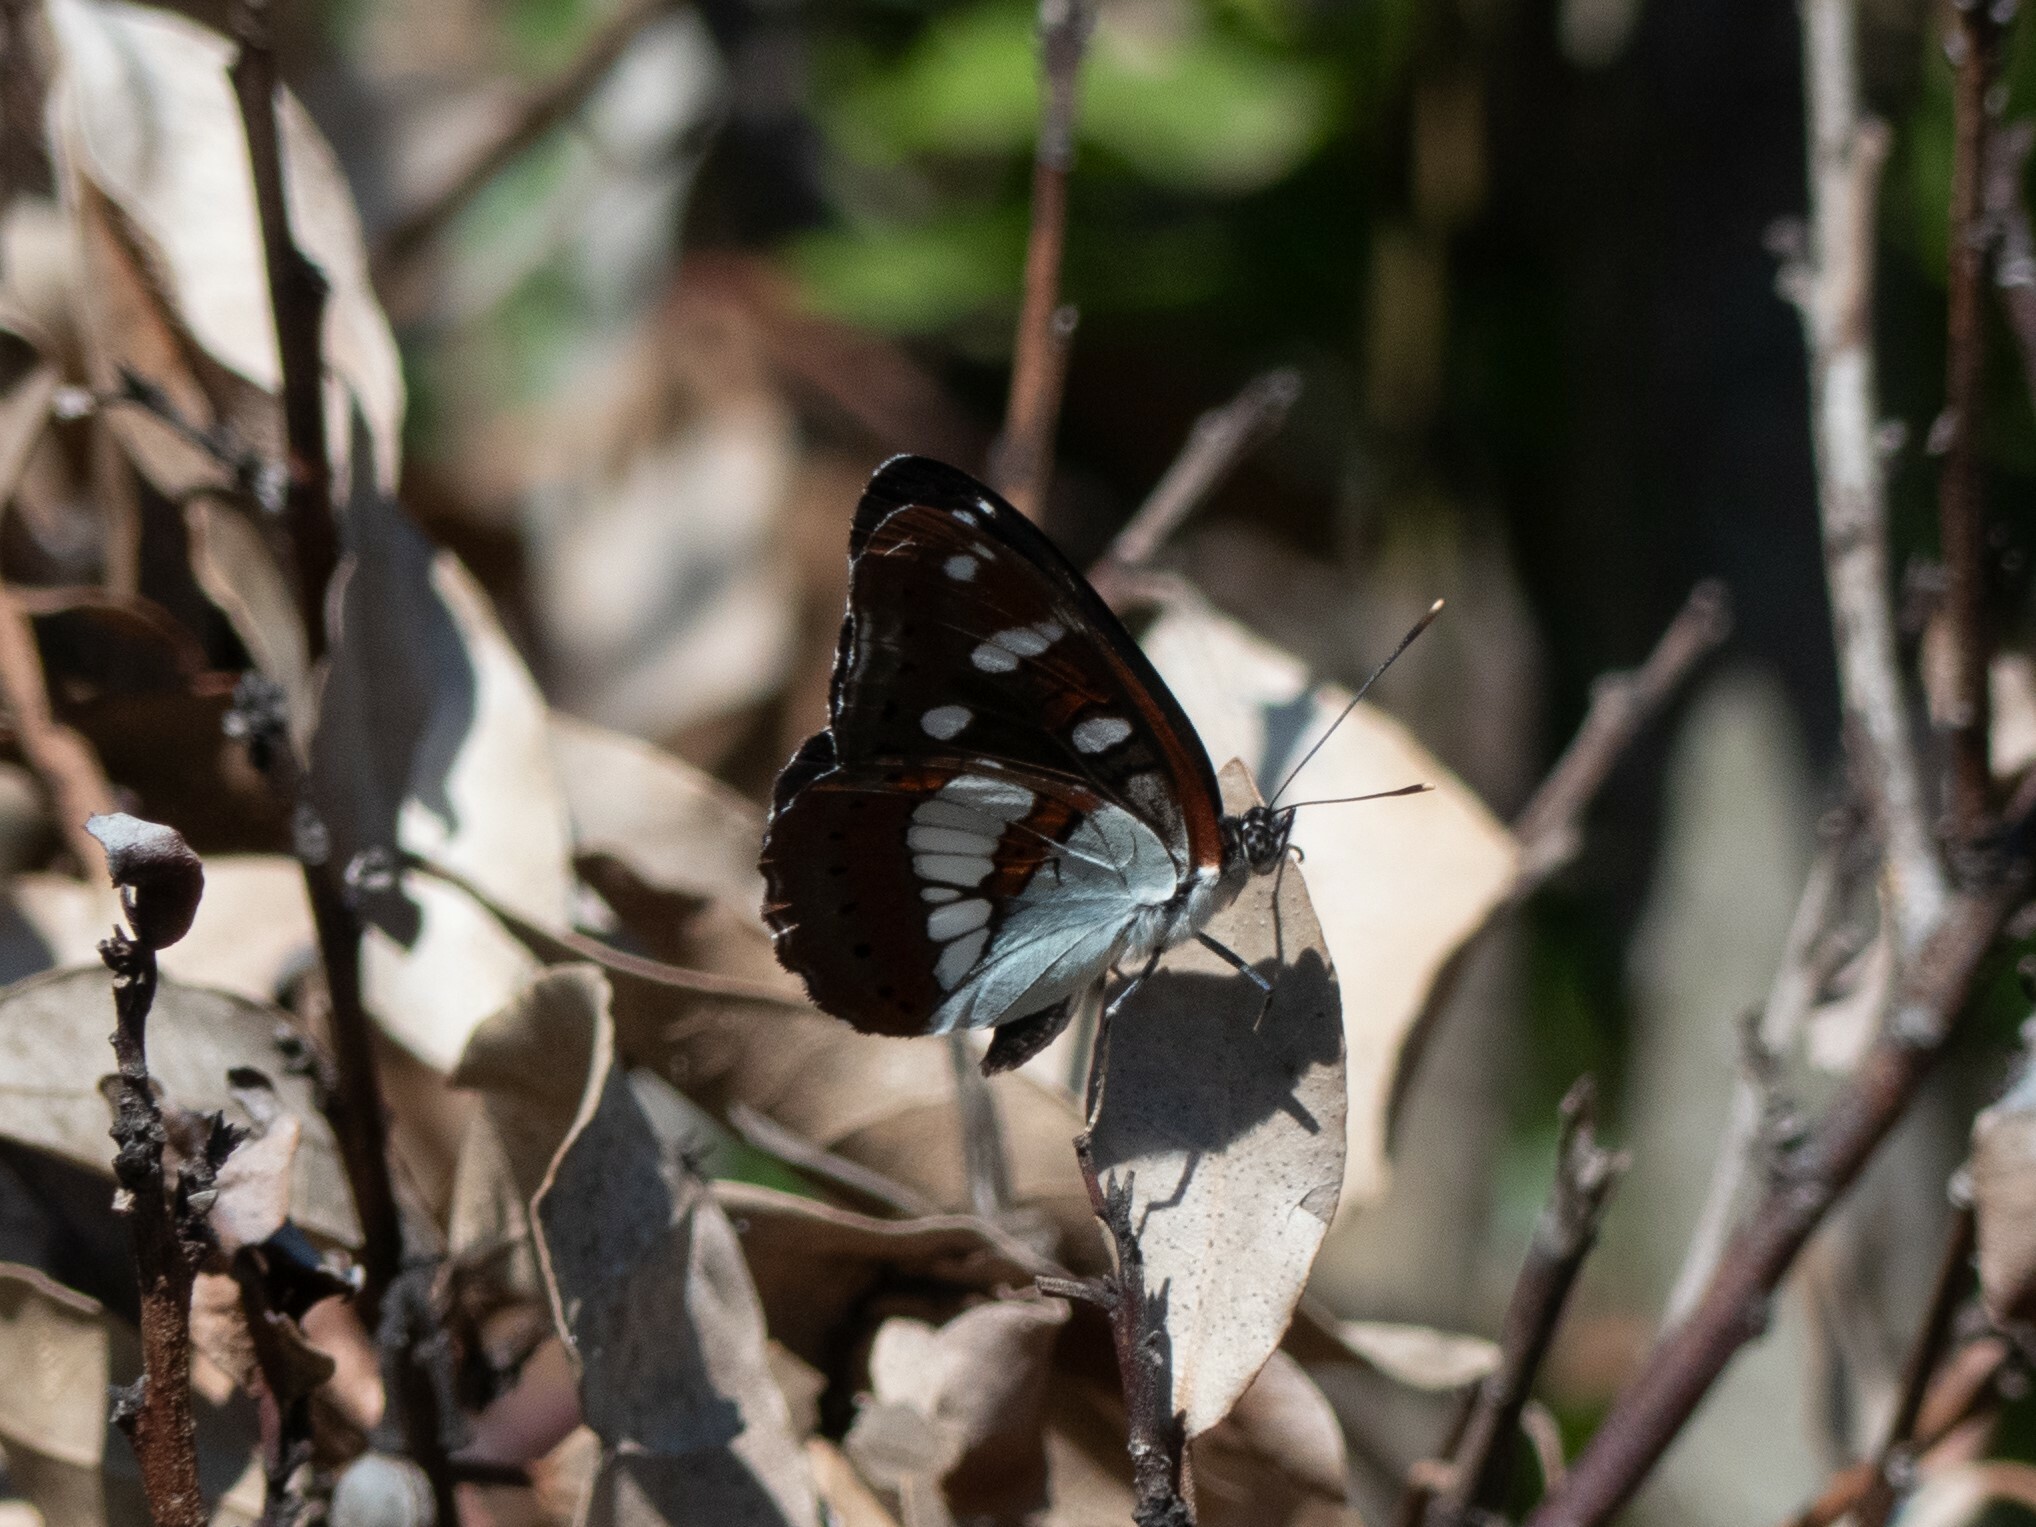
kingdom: Animalia
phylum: Arthropoda
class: Insecta
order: Lepidoptera
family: Nymphalidae
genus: Limenitis
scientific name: Limenitis reducta
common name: Southern white admiral
